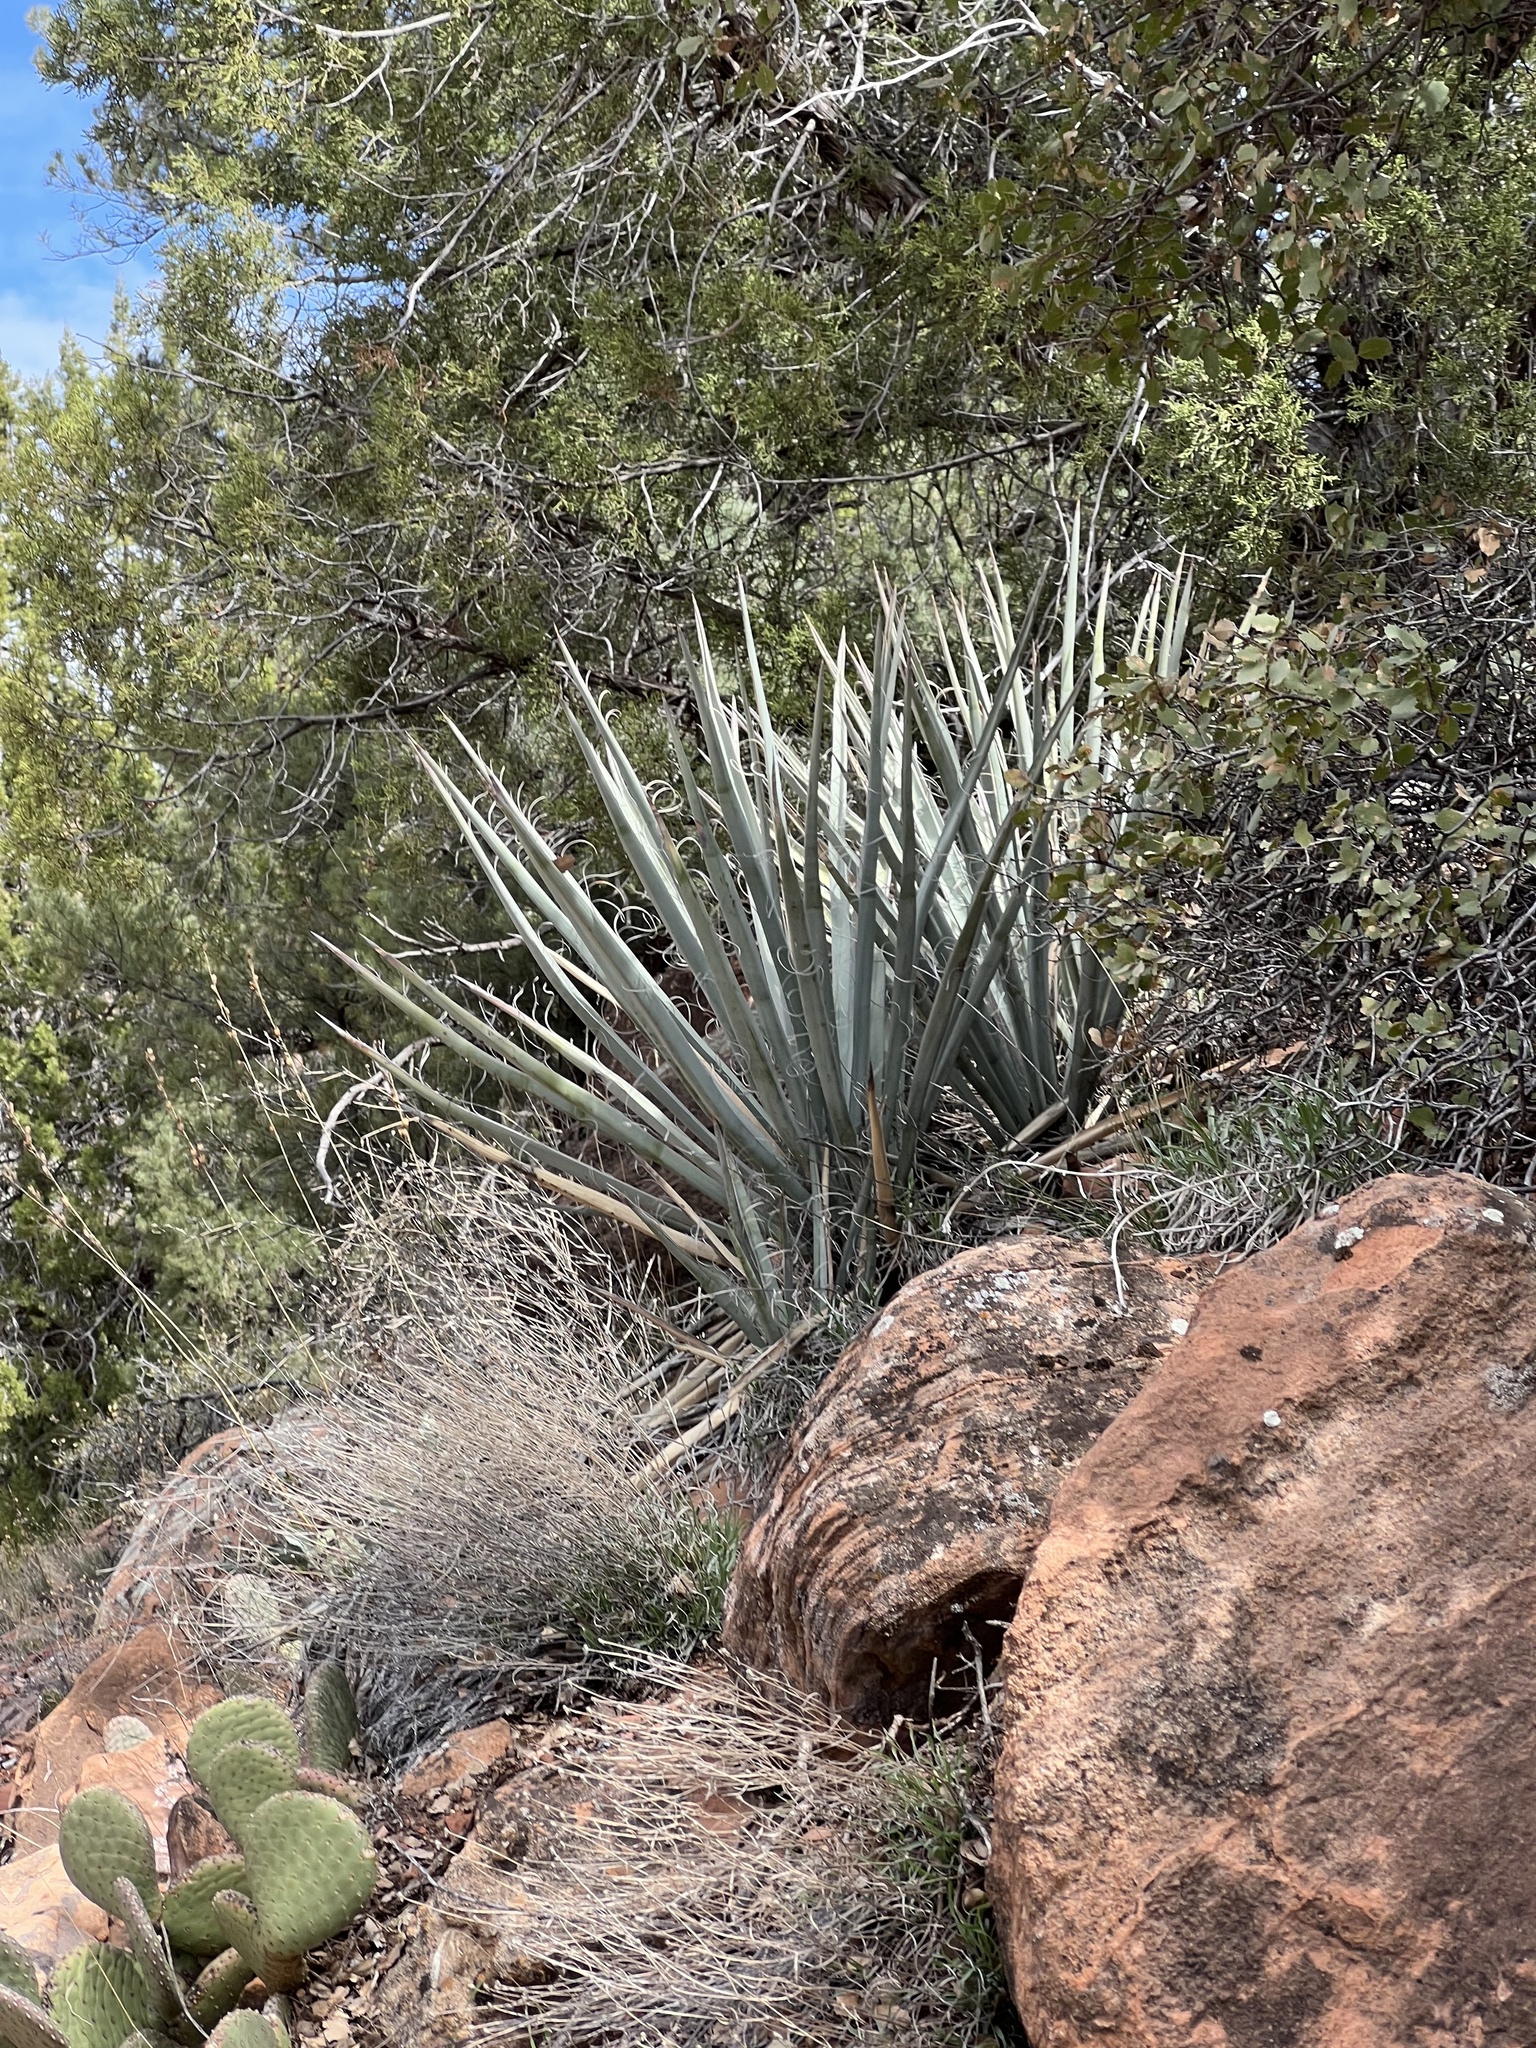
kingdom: Plantae
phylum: Tracheophyta
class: Liliopsida
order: Asparagales
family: Asparagaceae
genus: Yucca
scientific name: Yucca baccata
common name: Banana yucca
